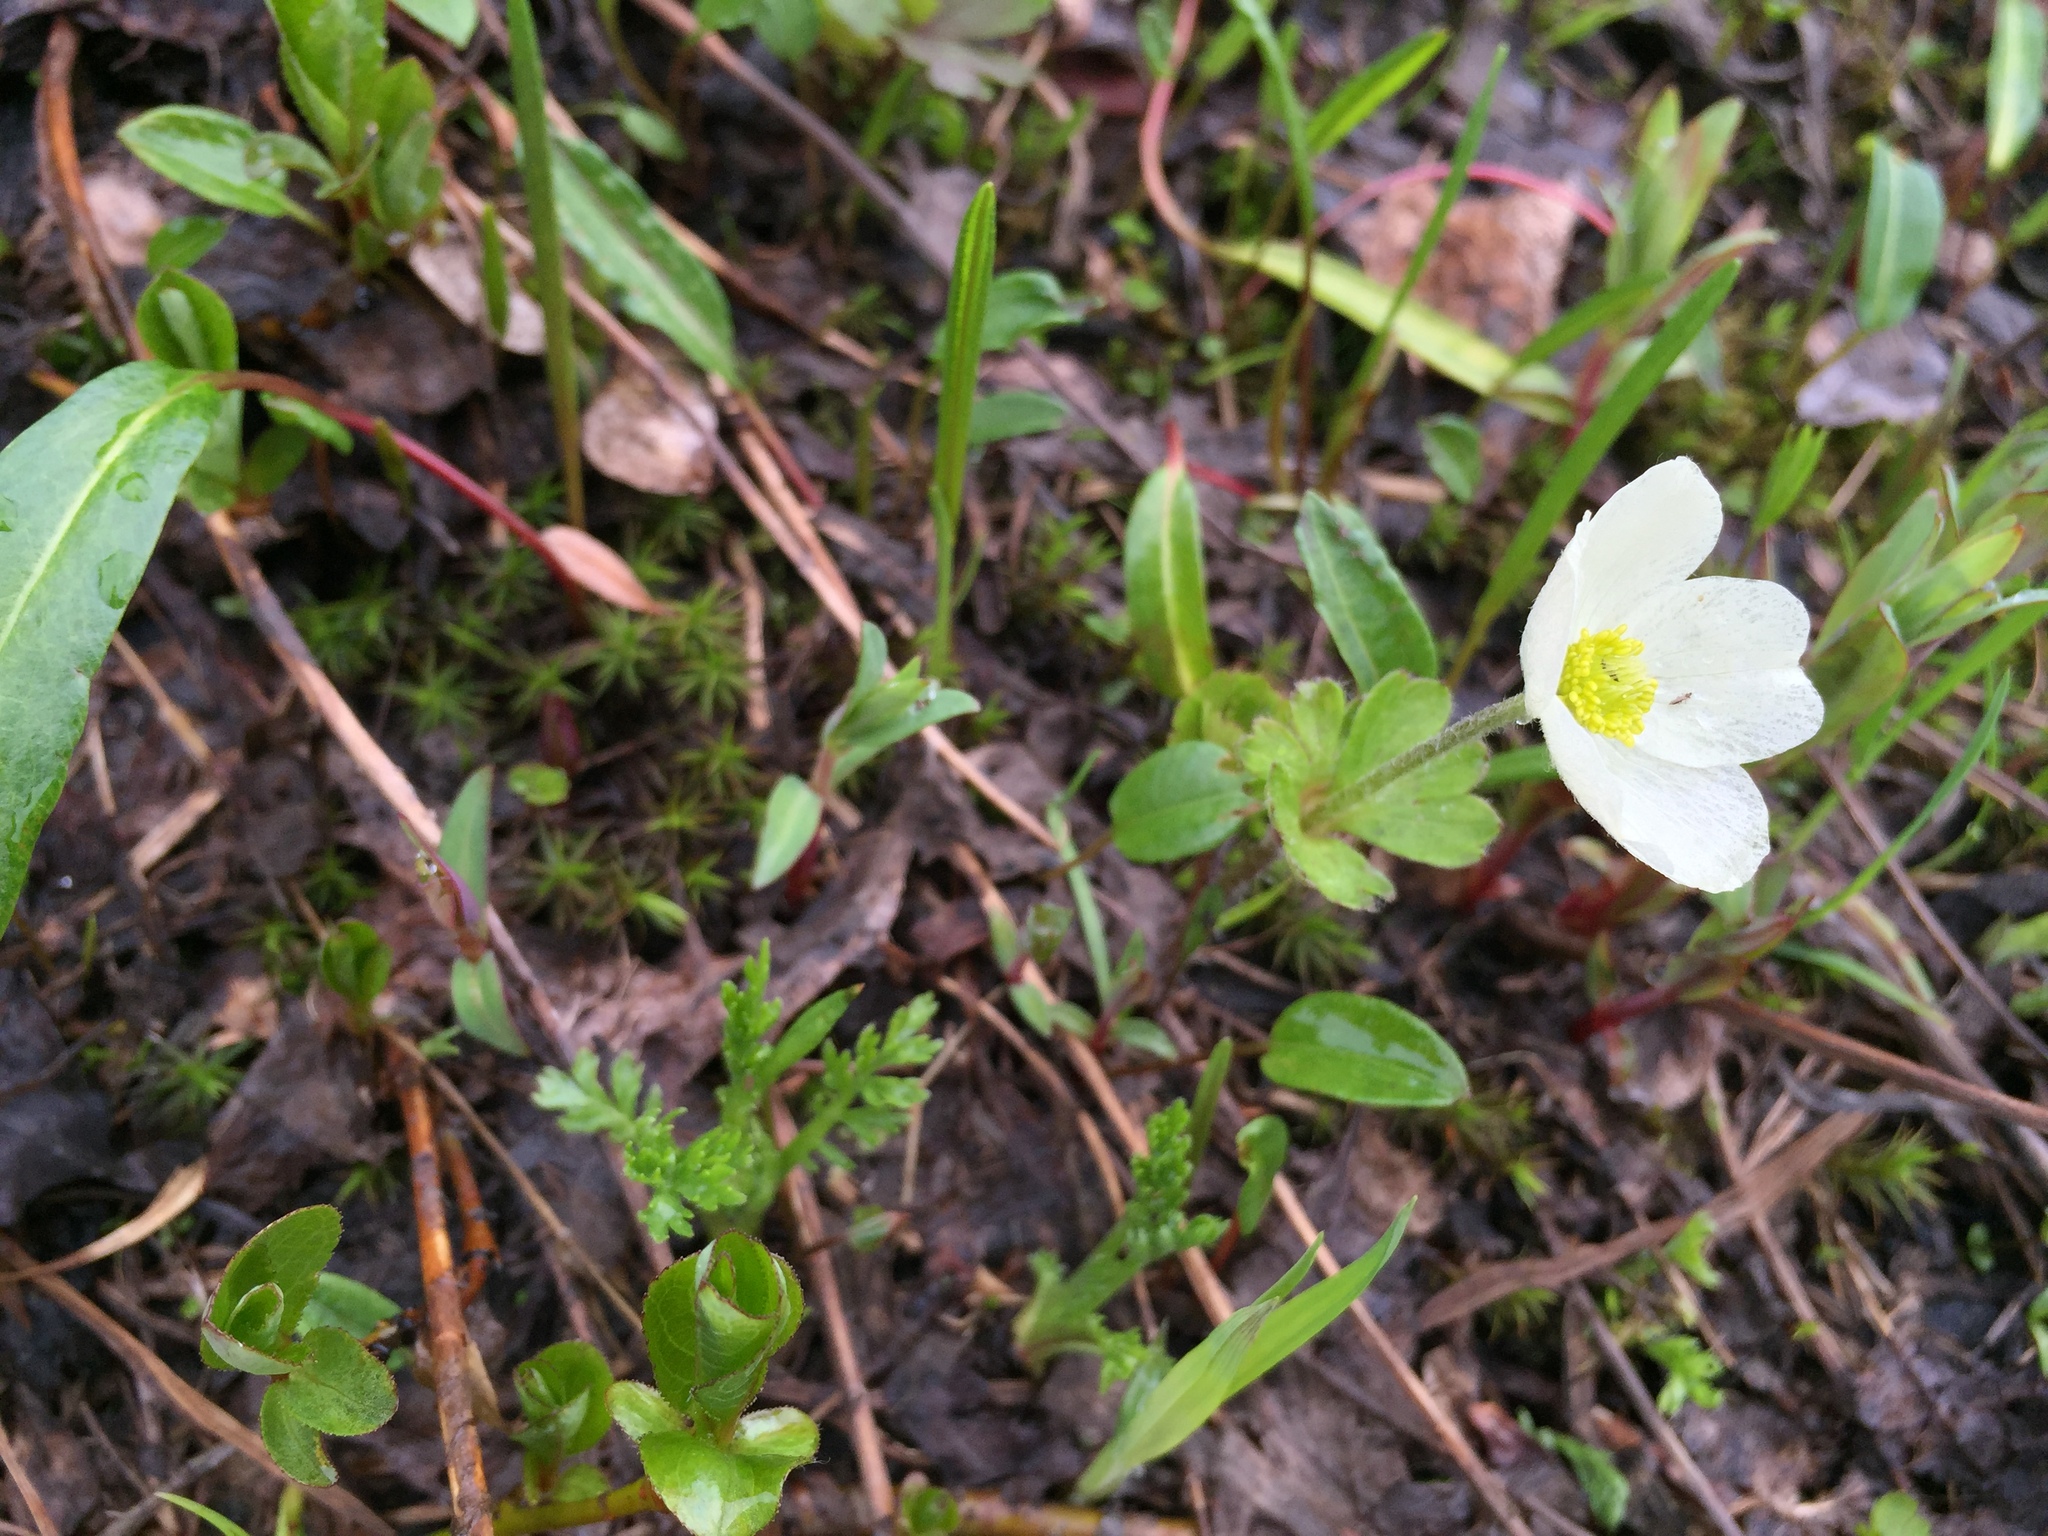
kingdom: Plantae
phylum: Tracheophyta
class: Magnoliopsida
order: Ranunculales
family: Ranunculaceae
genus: Anemone
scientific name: Anemone parviflora
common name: Northern anemone
